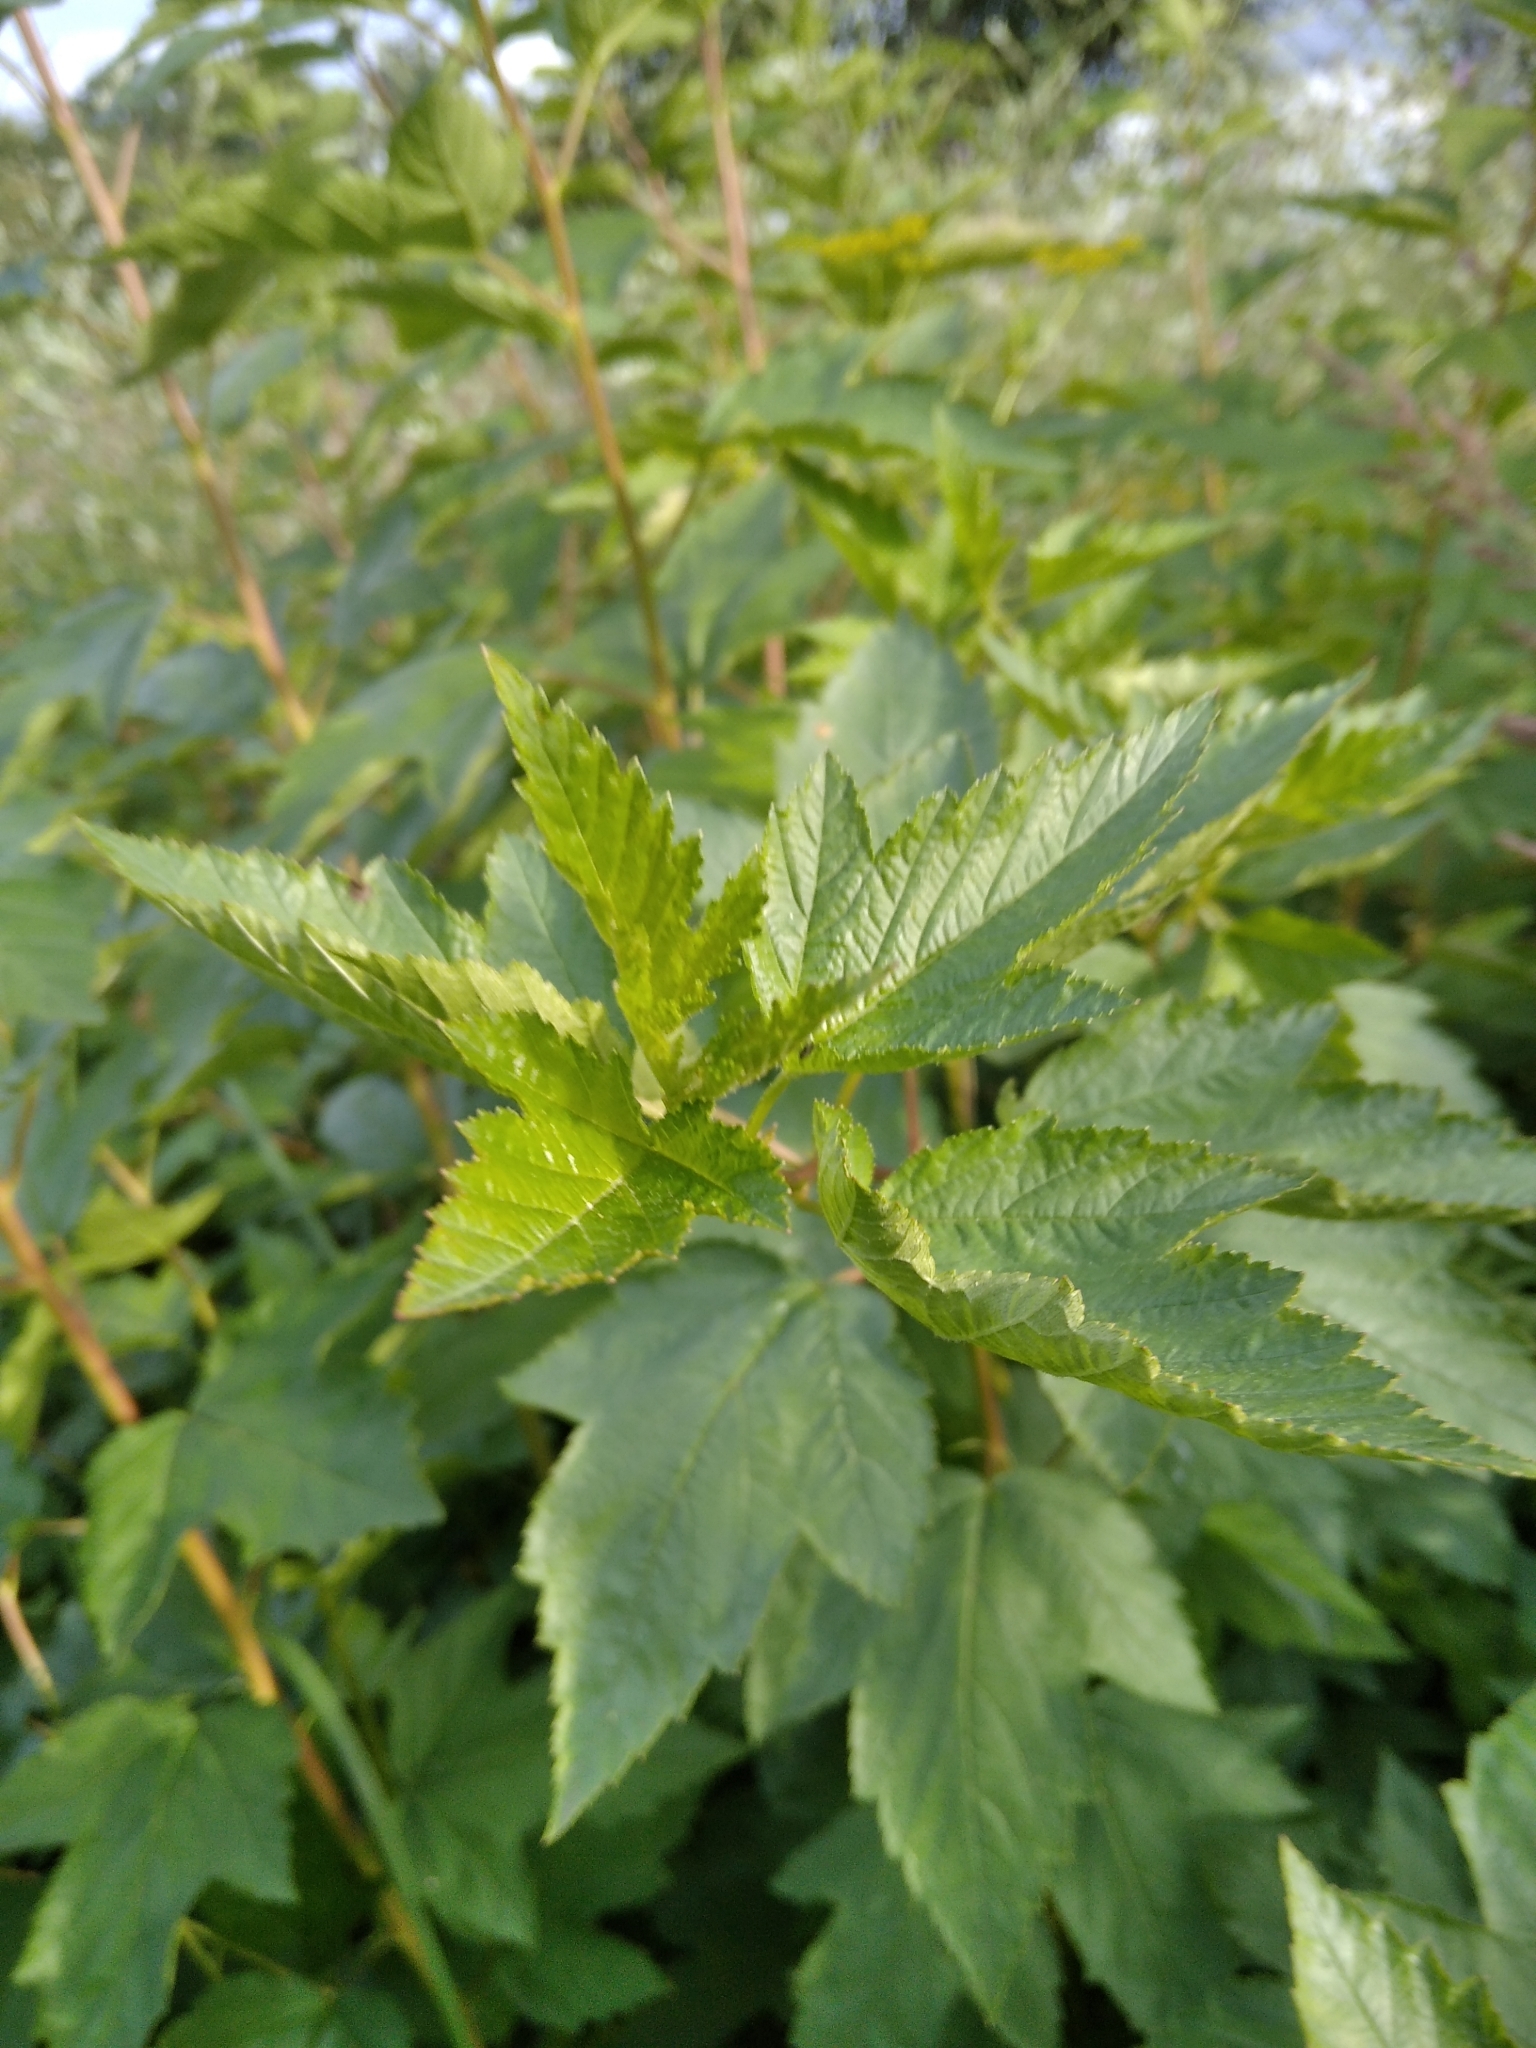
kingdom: Plantae
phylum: Tracheophyta
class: Magnoliopsida
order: Dipsacales
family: Viburnaceae
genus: Viburnum
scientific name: Viburnum opulus
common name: Guelder-rose
